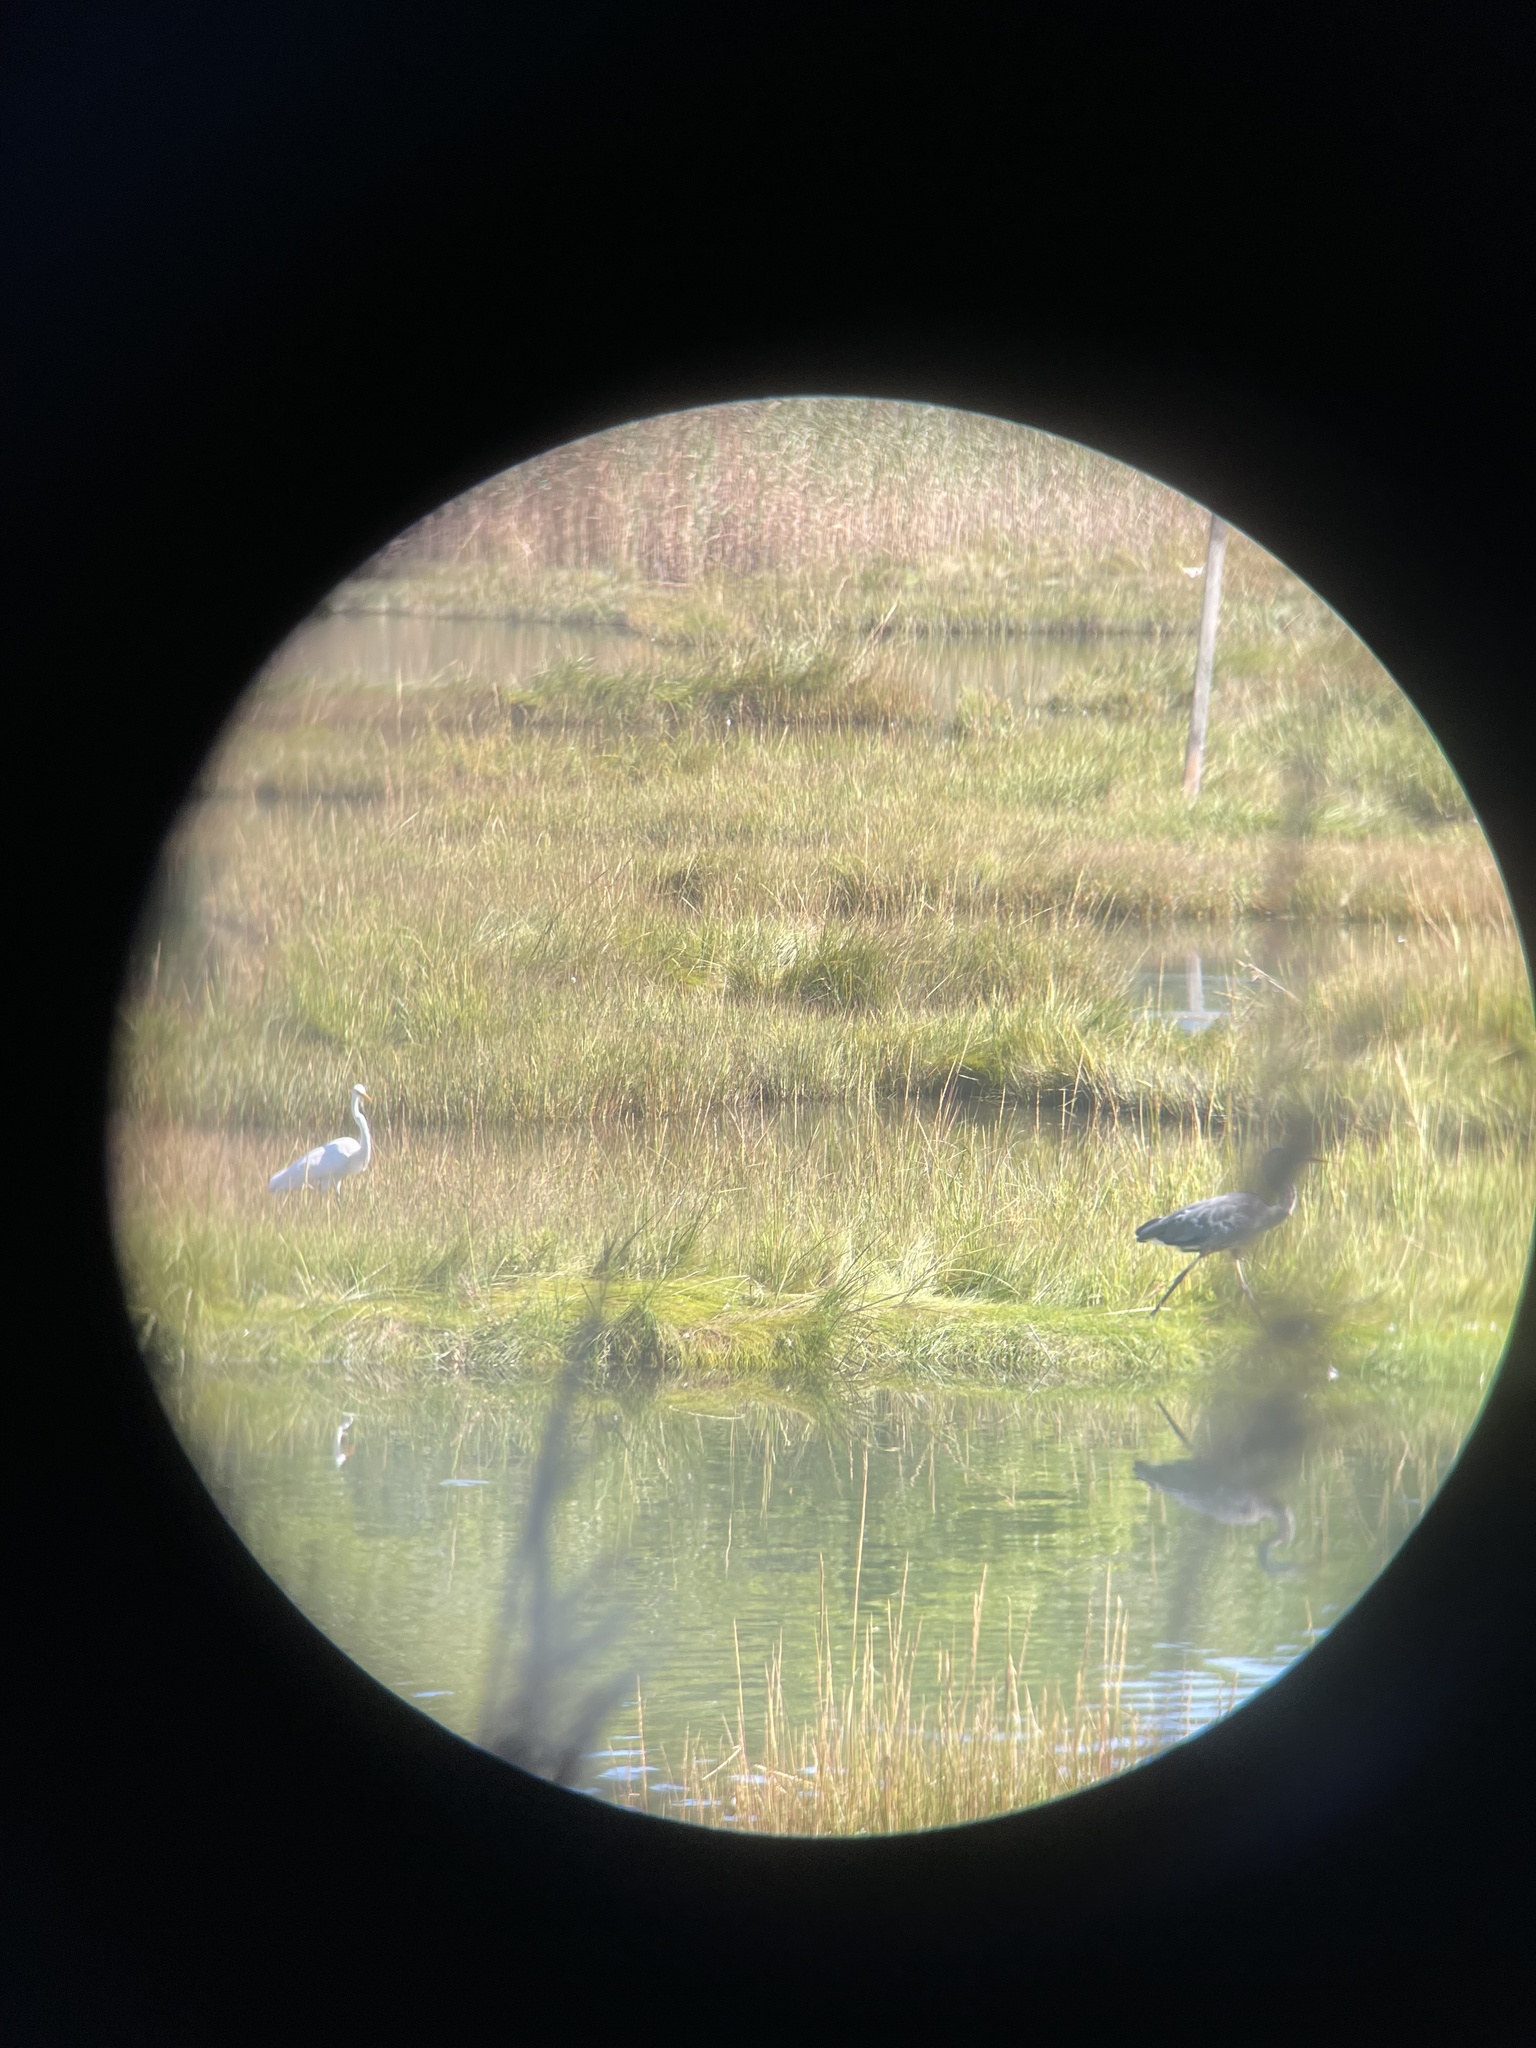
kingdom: Animalia
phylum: Chordata
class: Aves
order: Pelecaniformes
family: Ardeidae
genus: Ardea
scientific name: Ardea herodias
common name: Great blue heron
